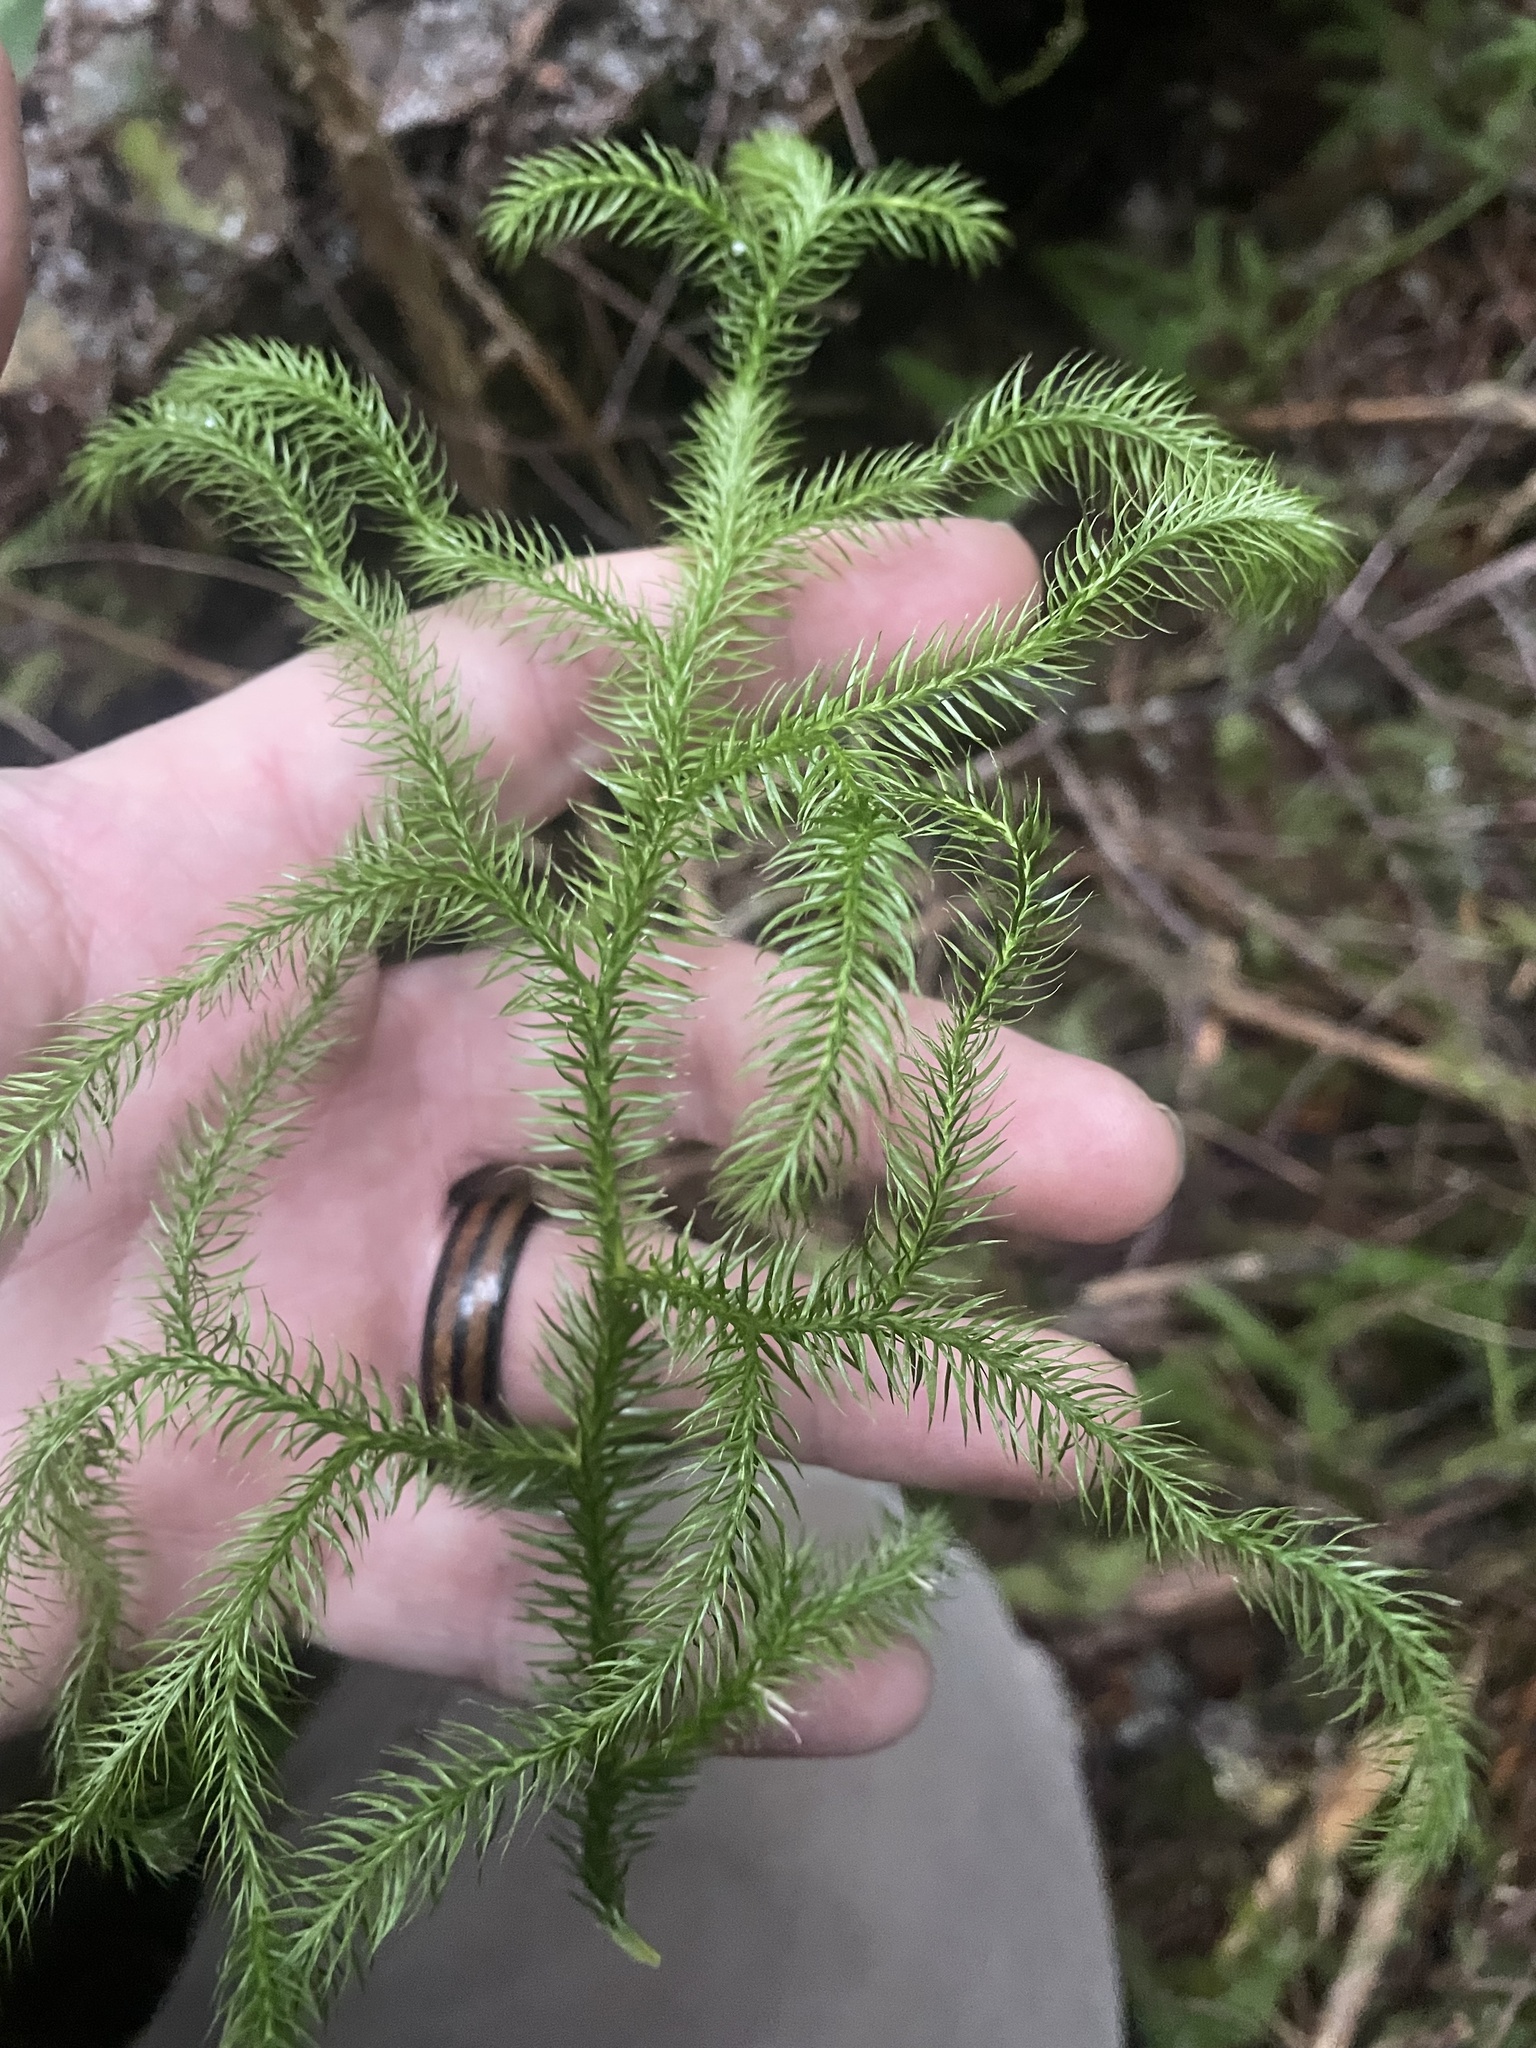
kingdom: Plantae
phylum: Tracheophyta
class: Lycopodiopsida
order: Lycopodiales
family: Lycopodiaceae
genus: Lycopodium
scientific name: Lycopodium clavatum
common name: Stag's-horn clubmoss
